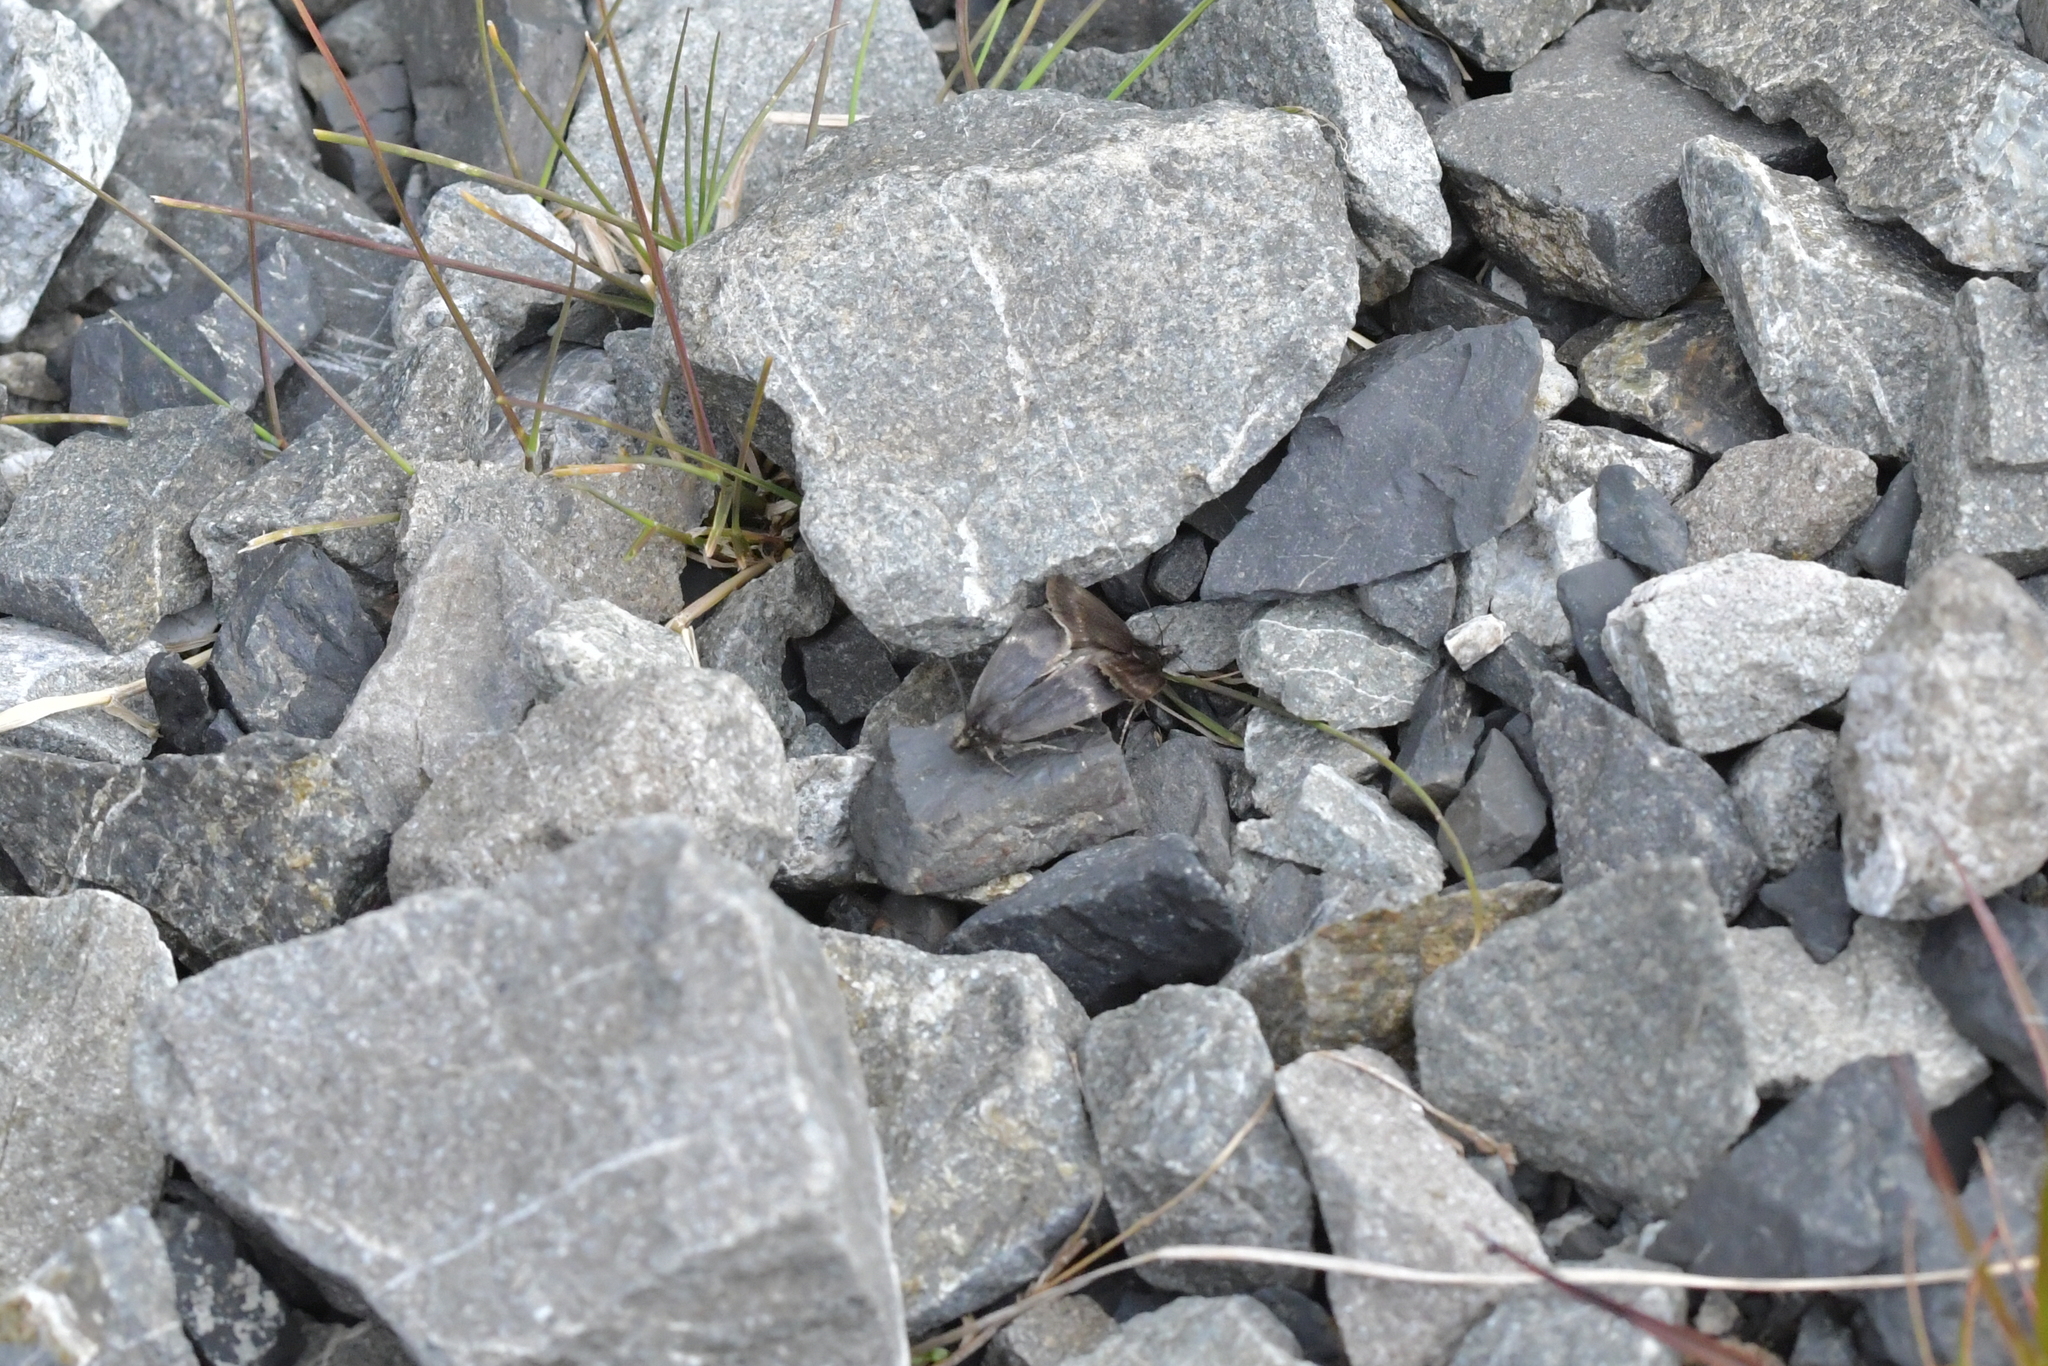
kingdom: Animalia
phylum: Arthropoda
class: Insecta
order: Lepidoptera
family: Crambidae
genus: Orocrambus
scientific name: Orocrambus melampetrus
